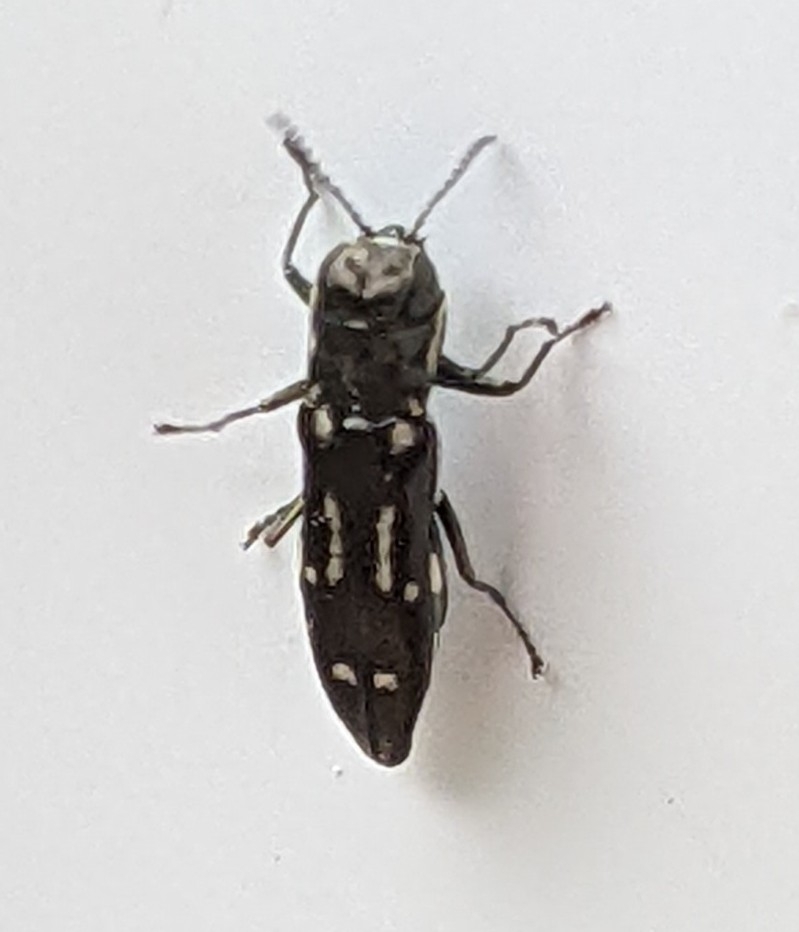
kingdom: Animalia
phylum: Arthropoda
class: Insecta
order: Coleoptera
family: Buprestidae
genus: Agrilus
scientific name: Agrilus obsoletoguttatus
